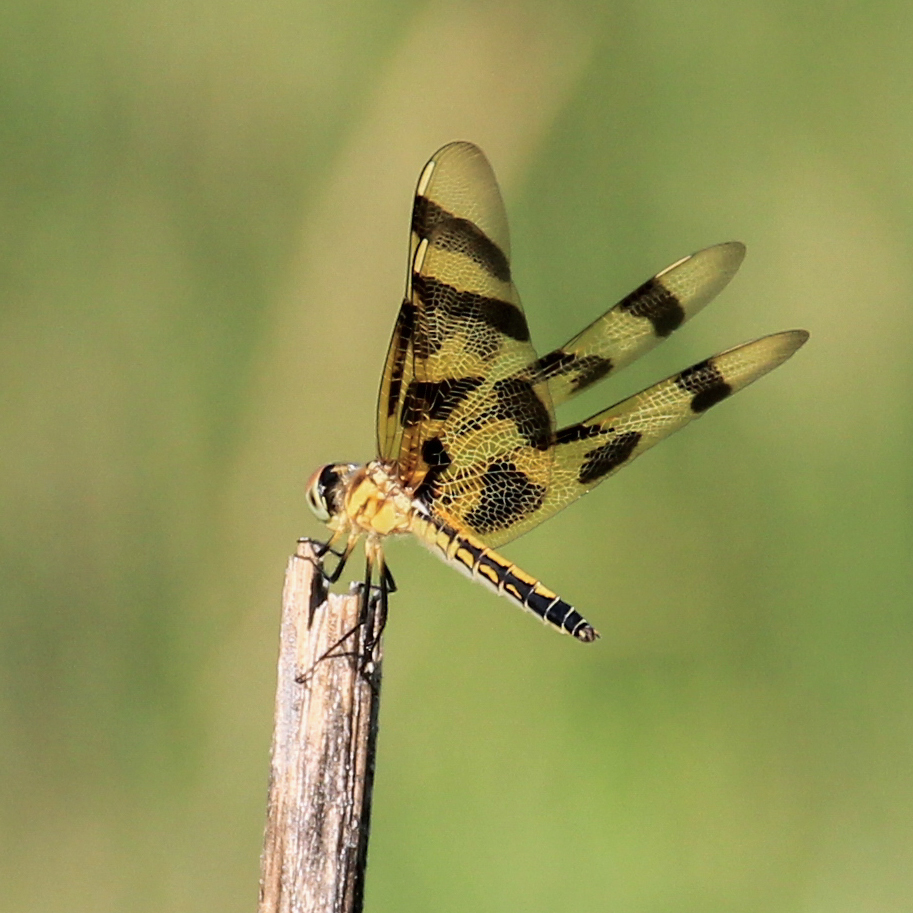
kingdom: Animalia
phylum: Arthropoda
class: Insecta
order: Odonata
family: Libellulidae
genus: Celithemis
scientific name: Celithemis eponina
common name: Halloween pennant
